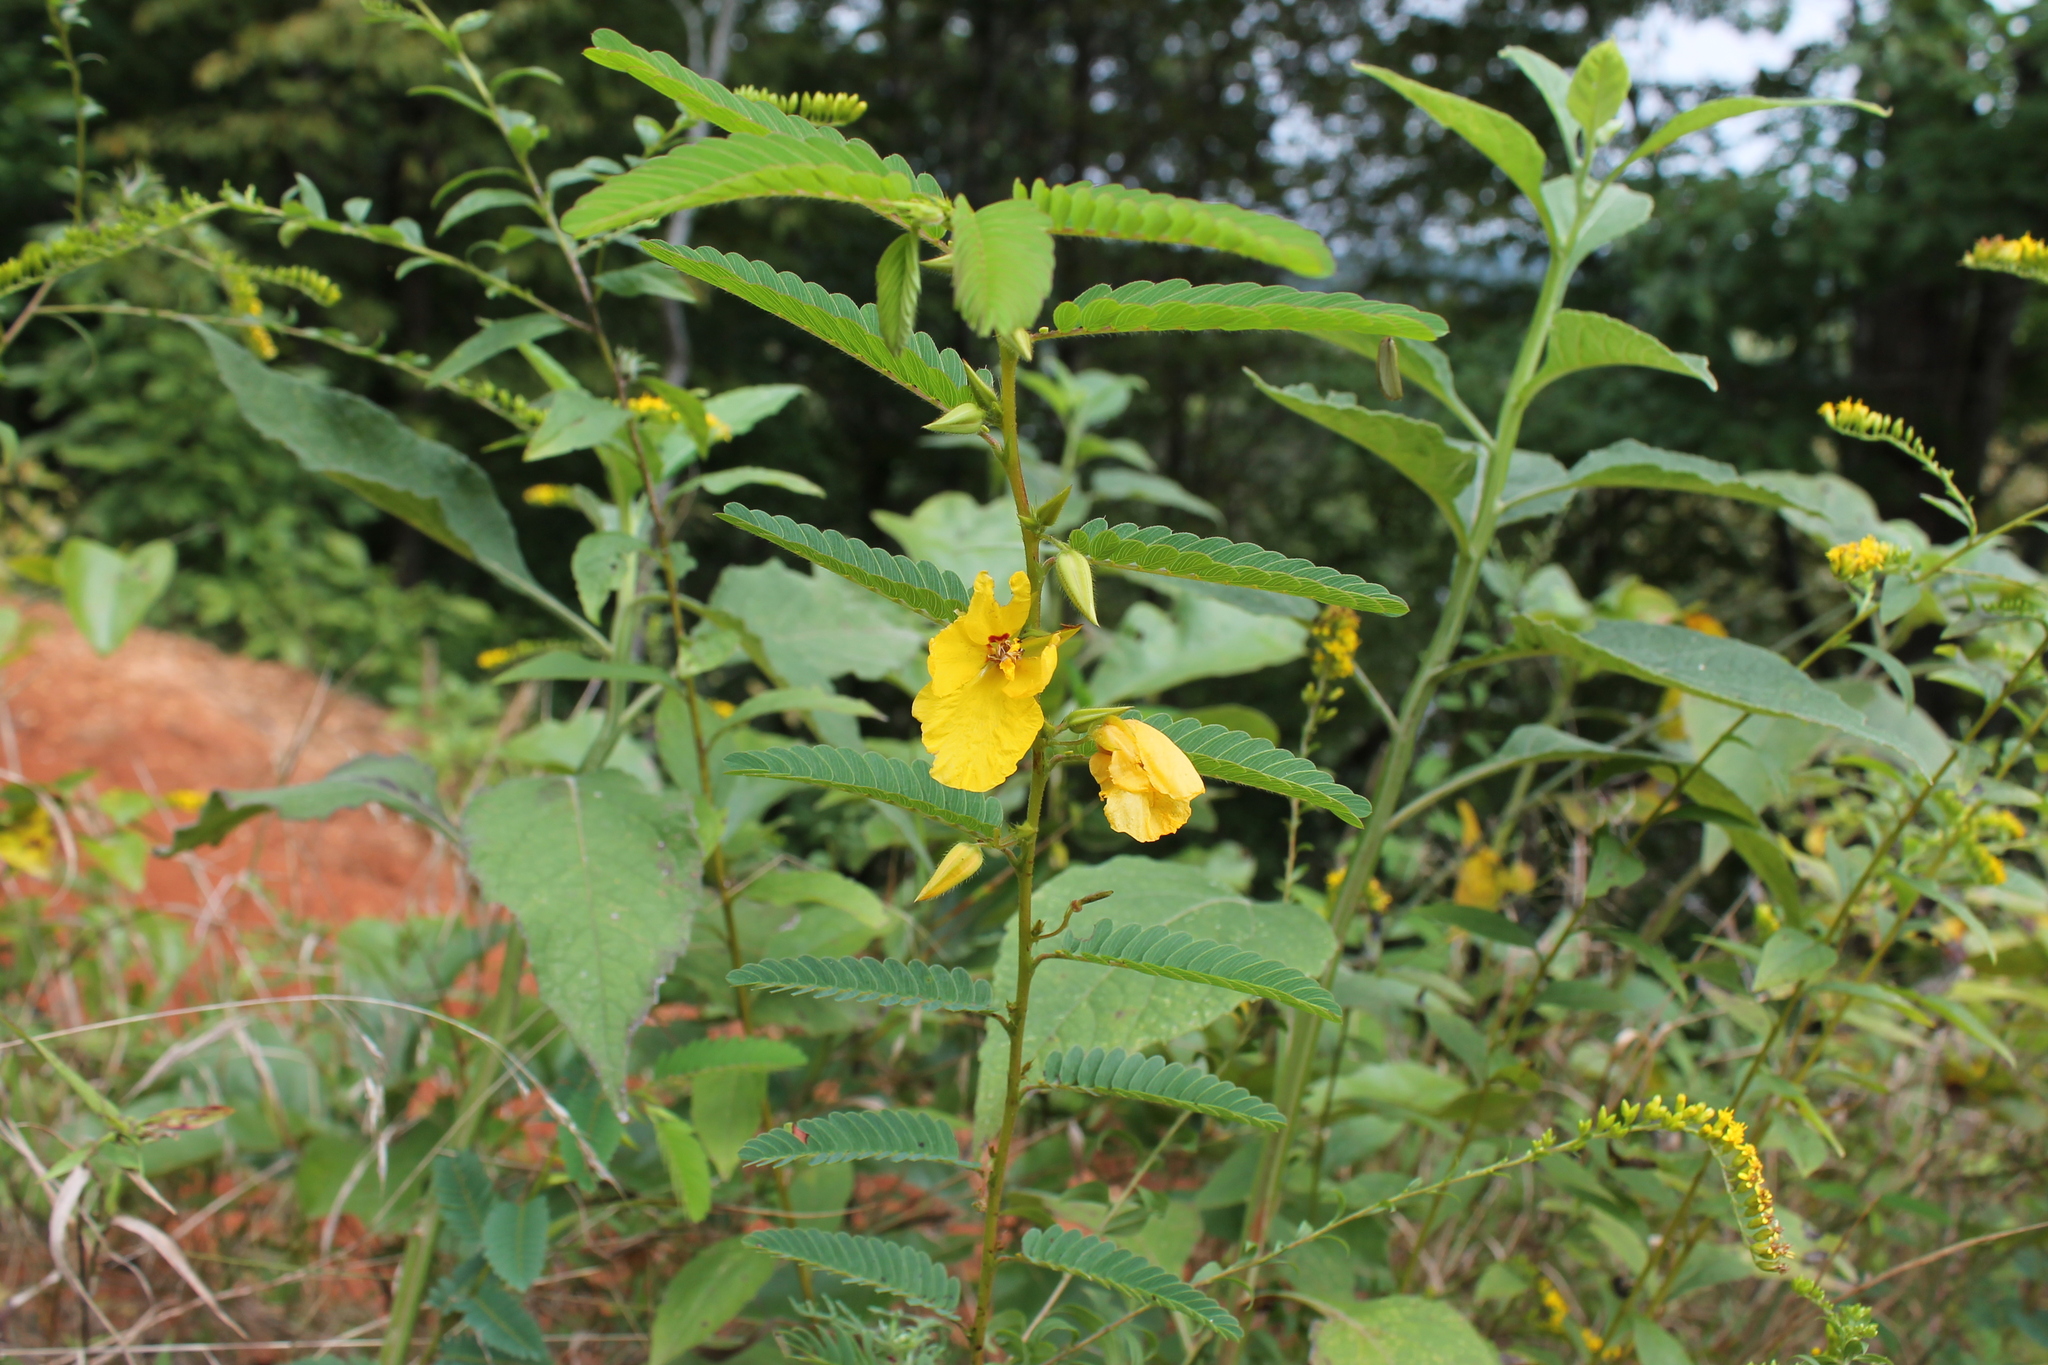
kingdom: Plantae
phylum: Tracheophyta
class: Magnoliopsida
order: Fabales
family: Fabaceae
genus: Chamaecrista
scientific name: Chamaecrista fasciculata
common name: Golden cassia
